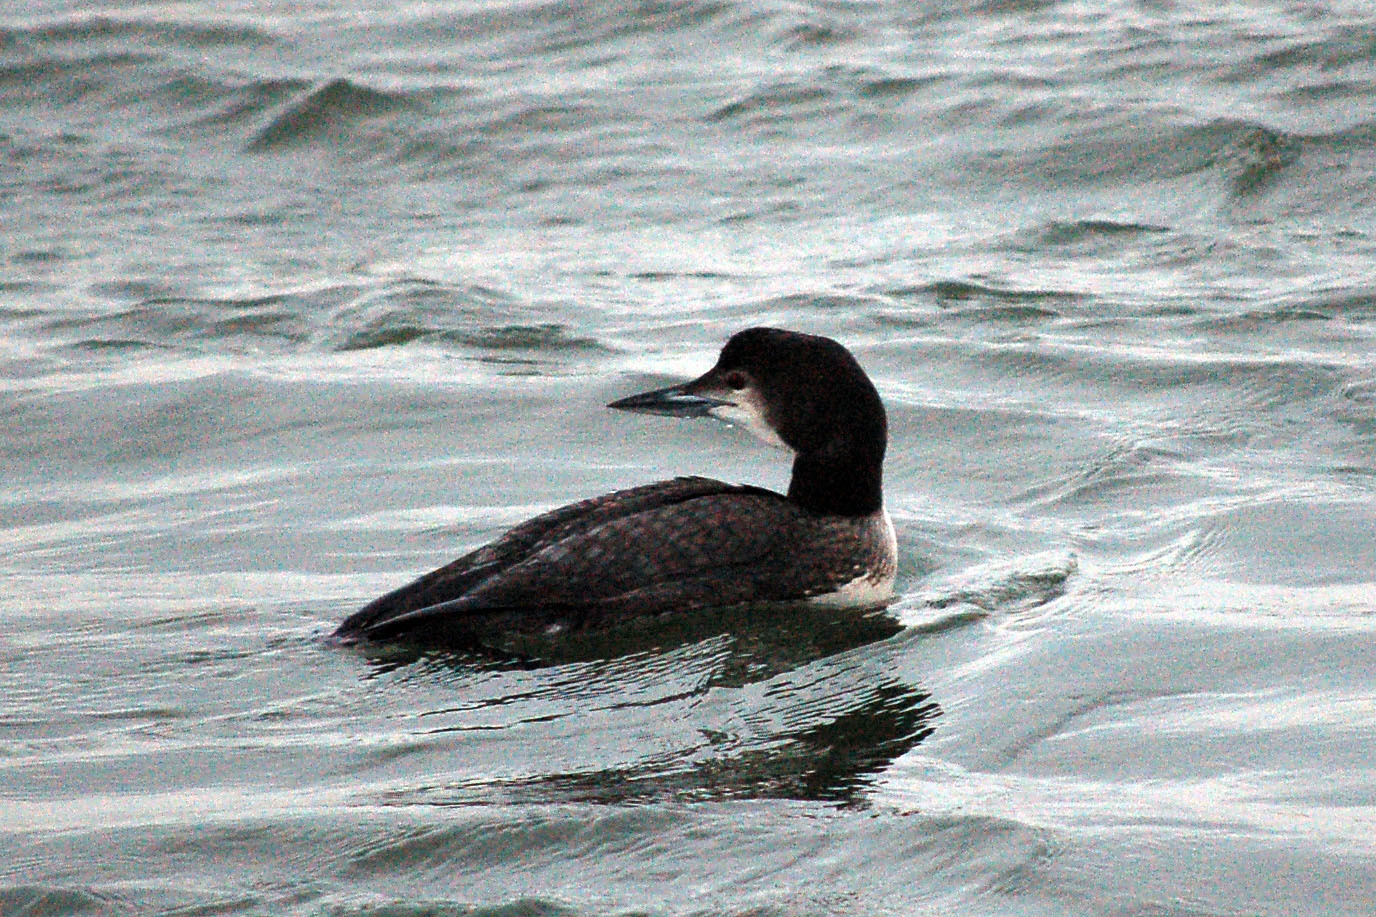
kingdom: Animalia
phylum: Chordata
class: Aves
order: Gaviiformes
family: Gaviidae
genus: Gavia
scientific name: Gavia immer
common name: Common loon
